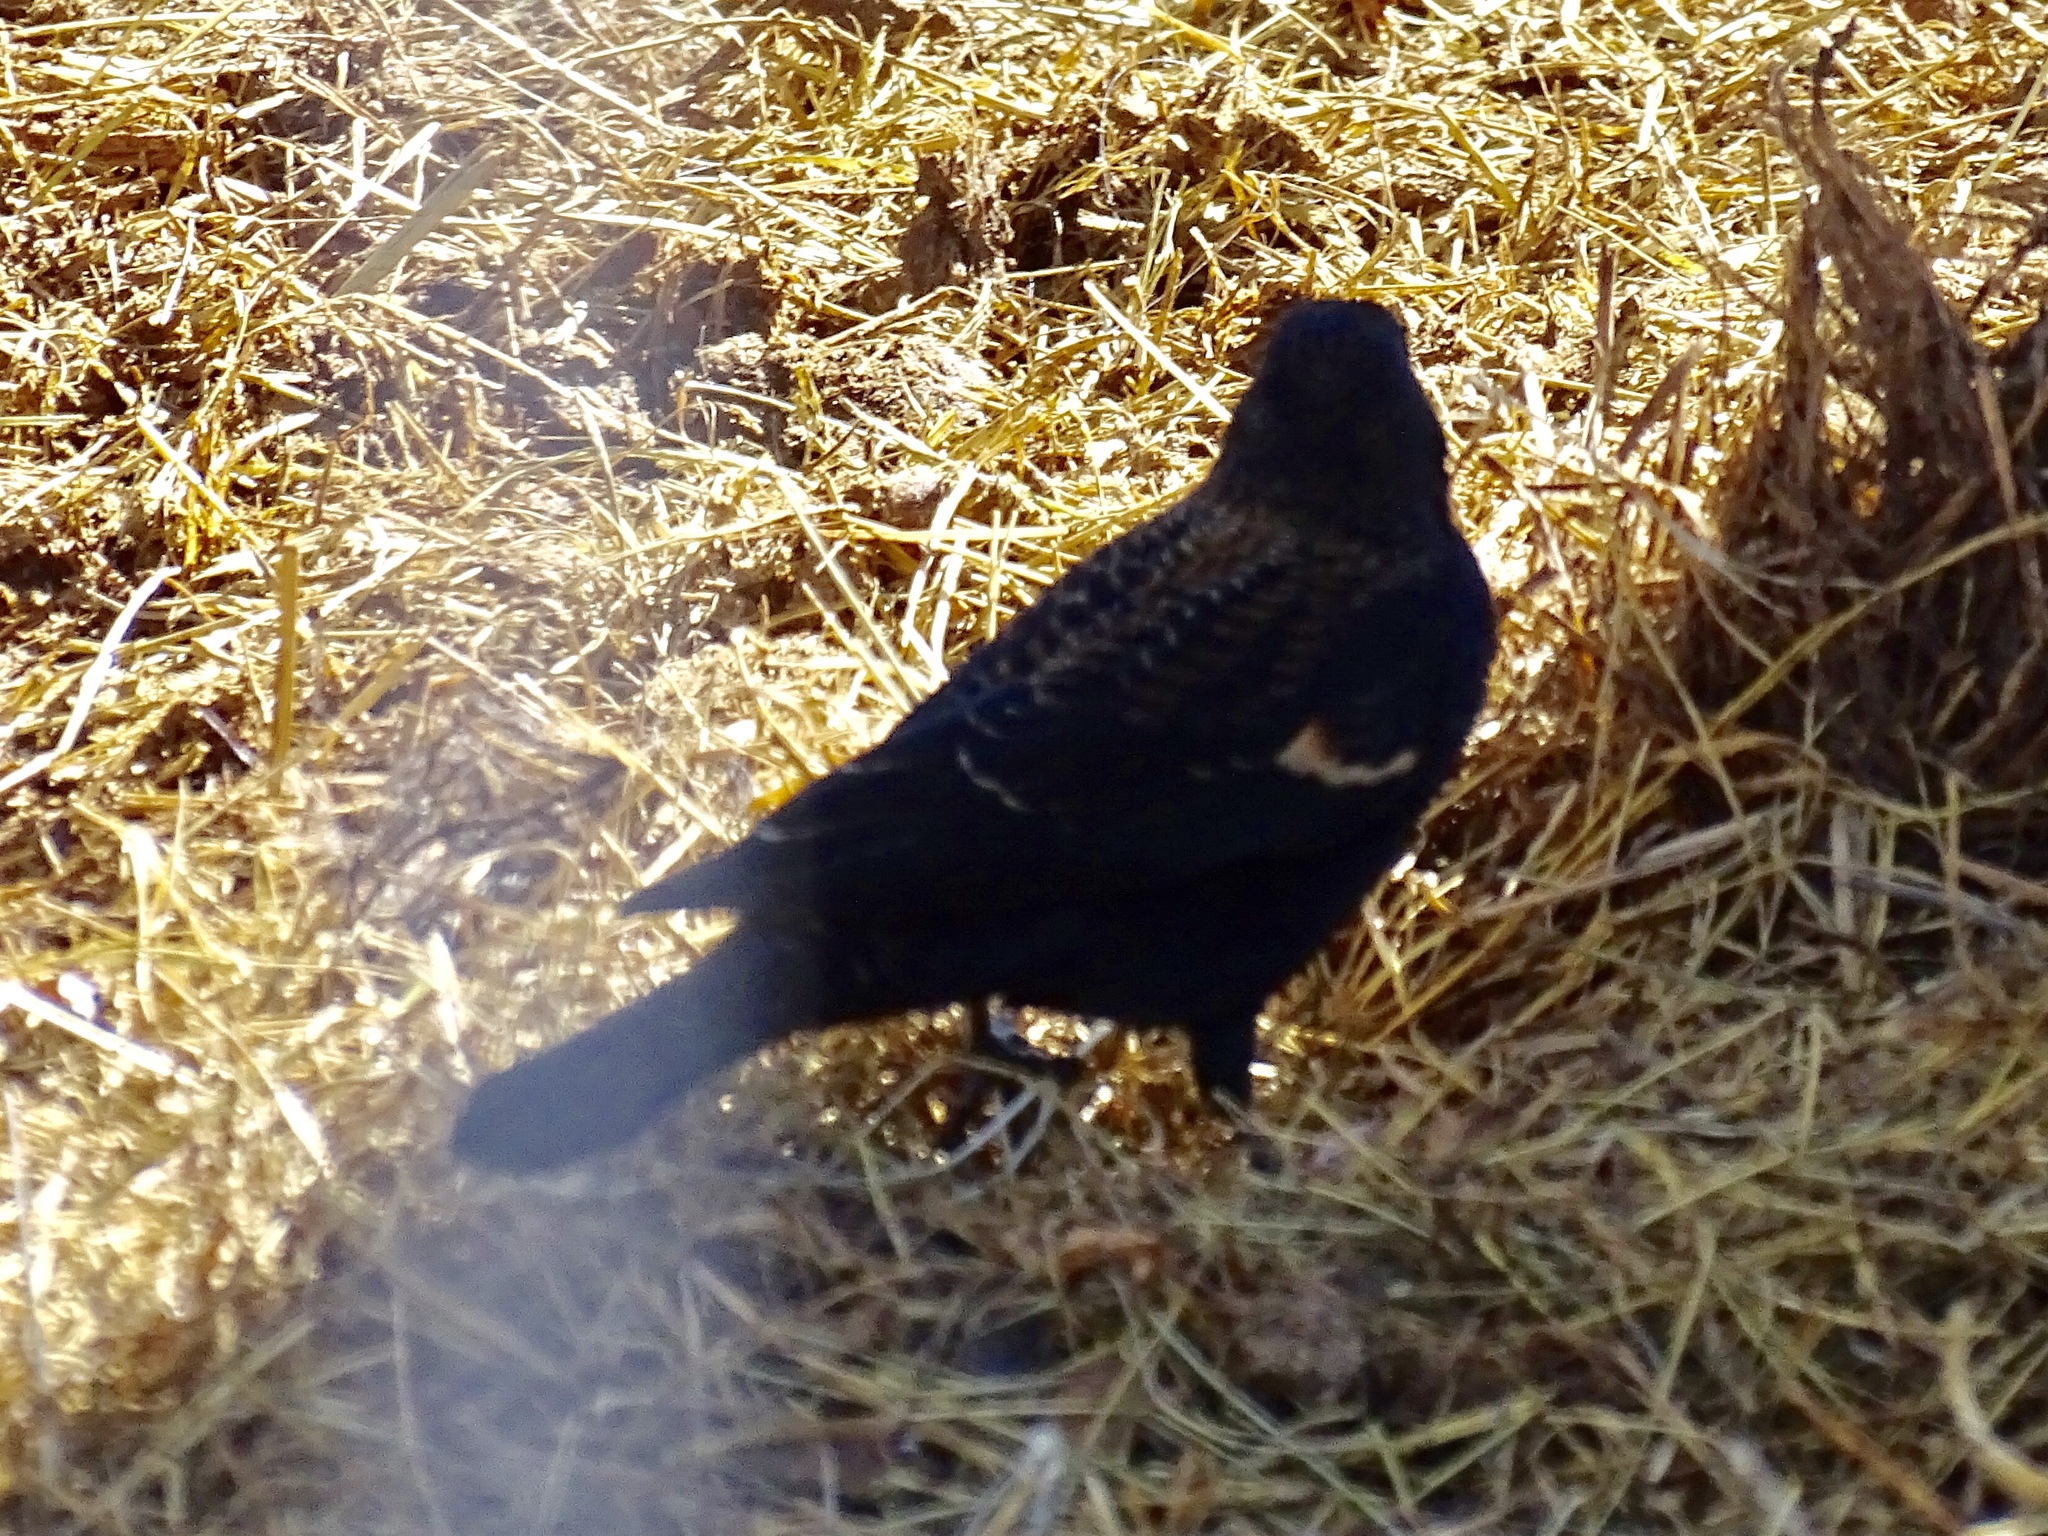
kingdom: Animalia
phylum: Chordata
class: Aves
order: Passeriformes
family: Icteridae
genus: Agelaius
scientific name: Agelaius phoeniceus
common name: Red-winged blackbird
